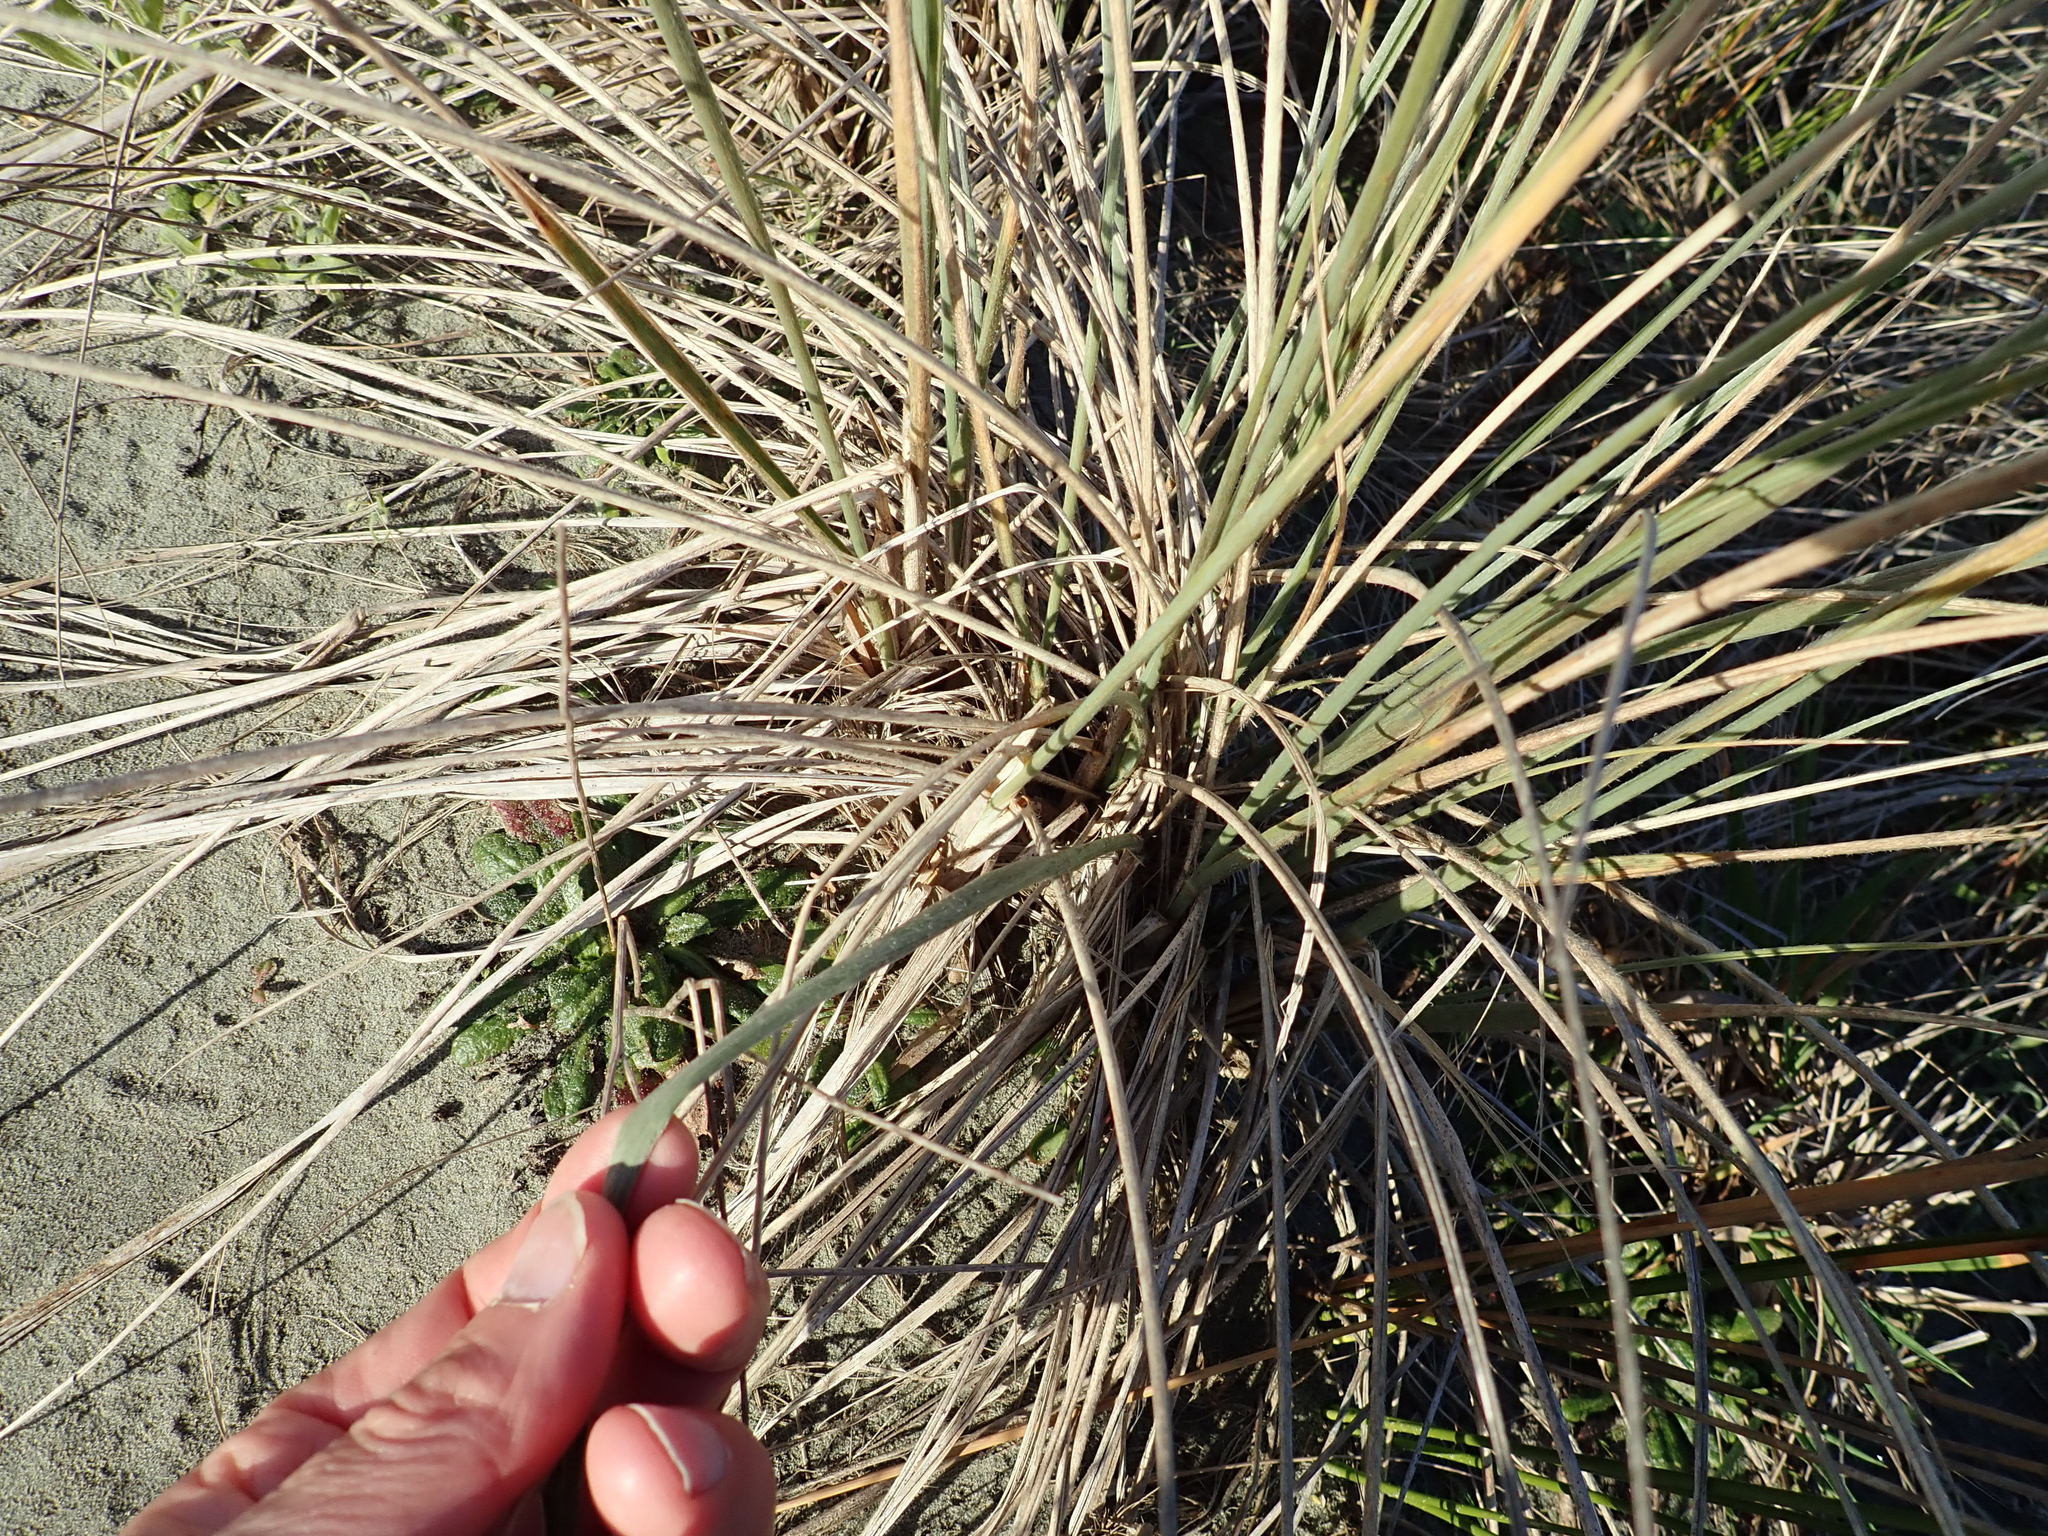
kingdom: Plantae
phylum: Tracheophyta
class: Liliopsida
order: Poales
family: Poaceae
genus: Spinifex
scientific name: Spinifex sericeus
